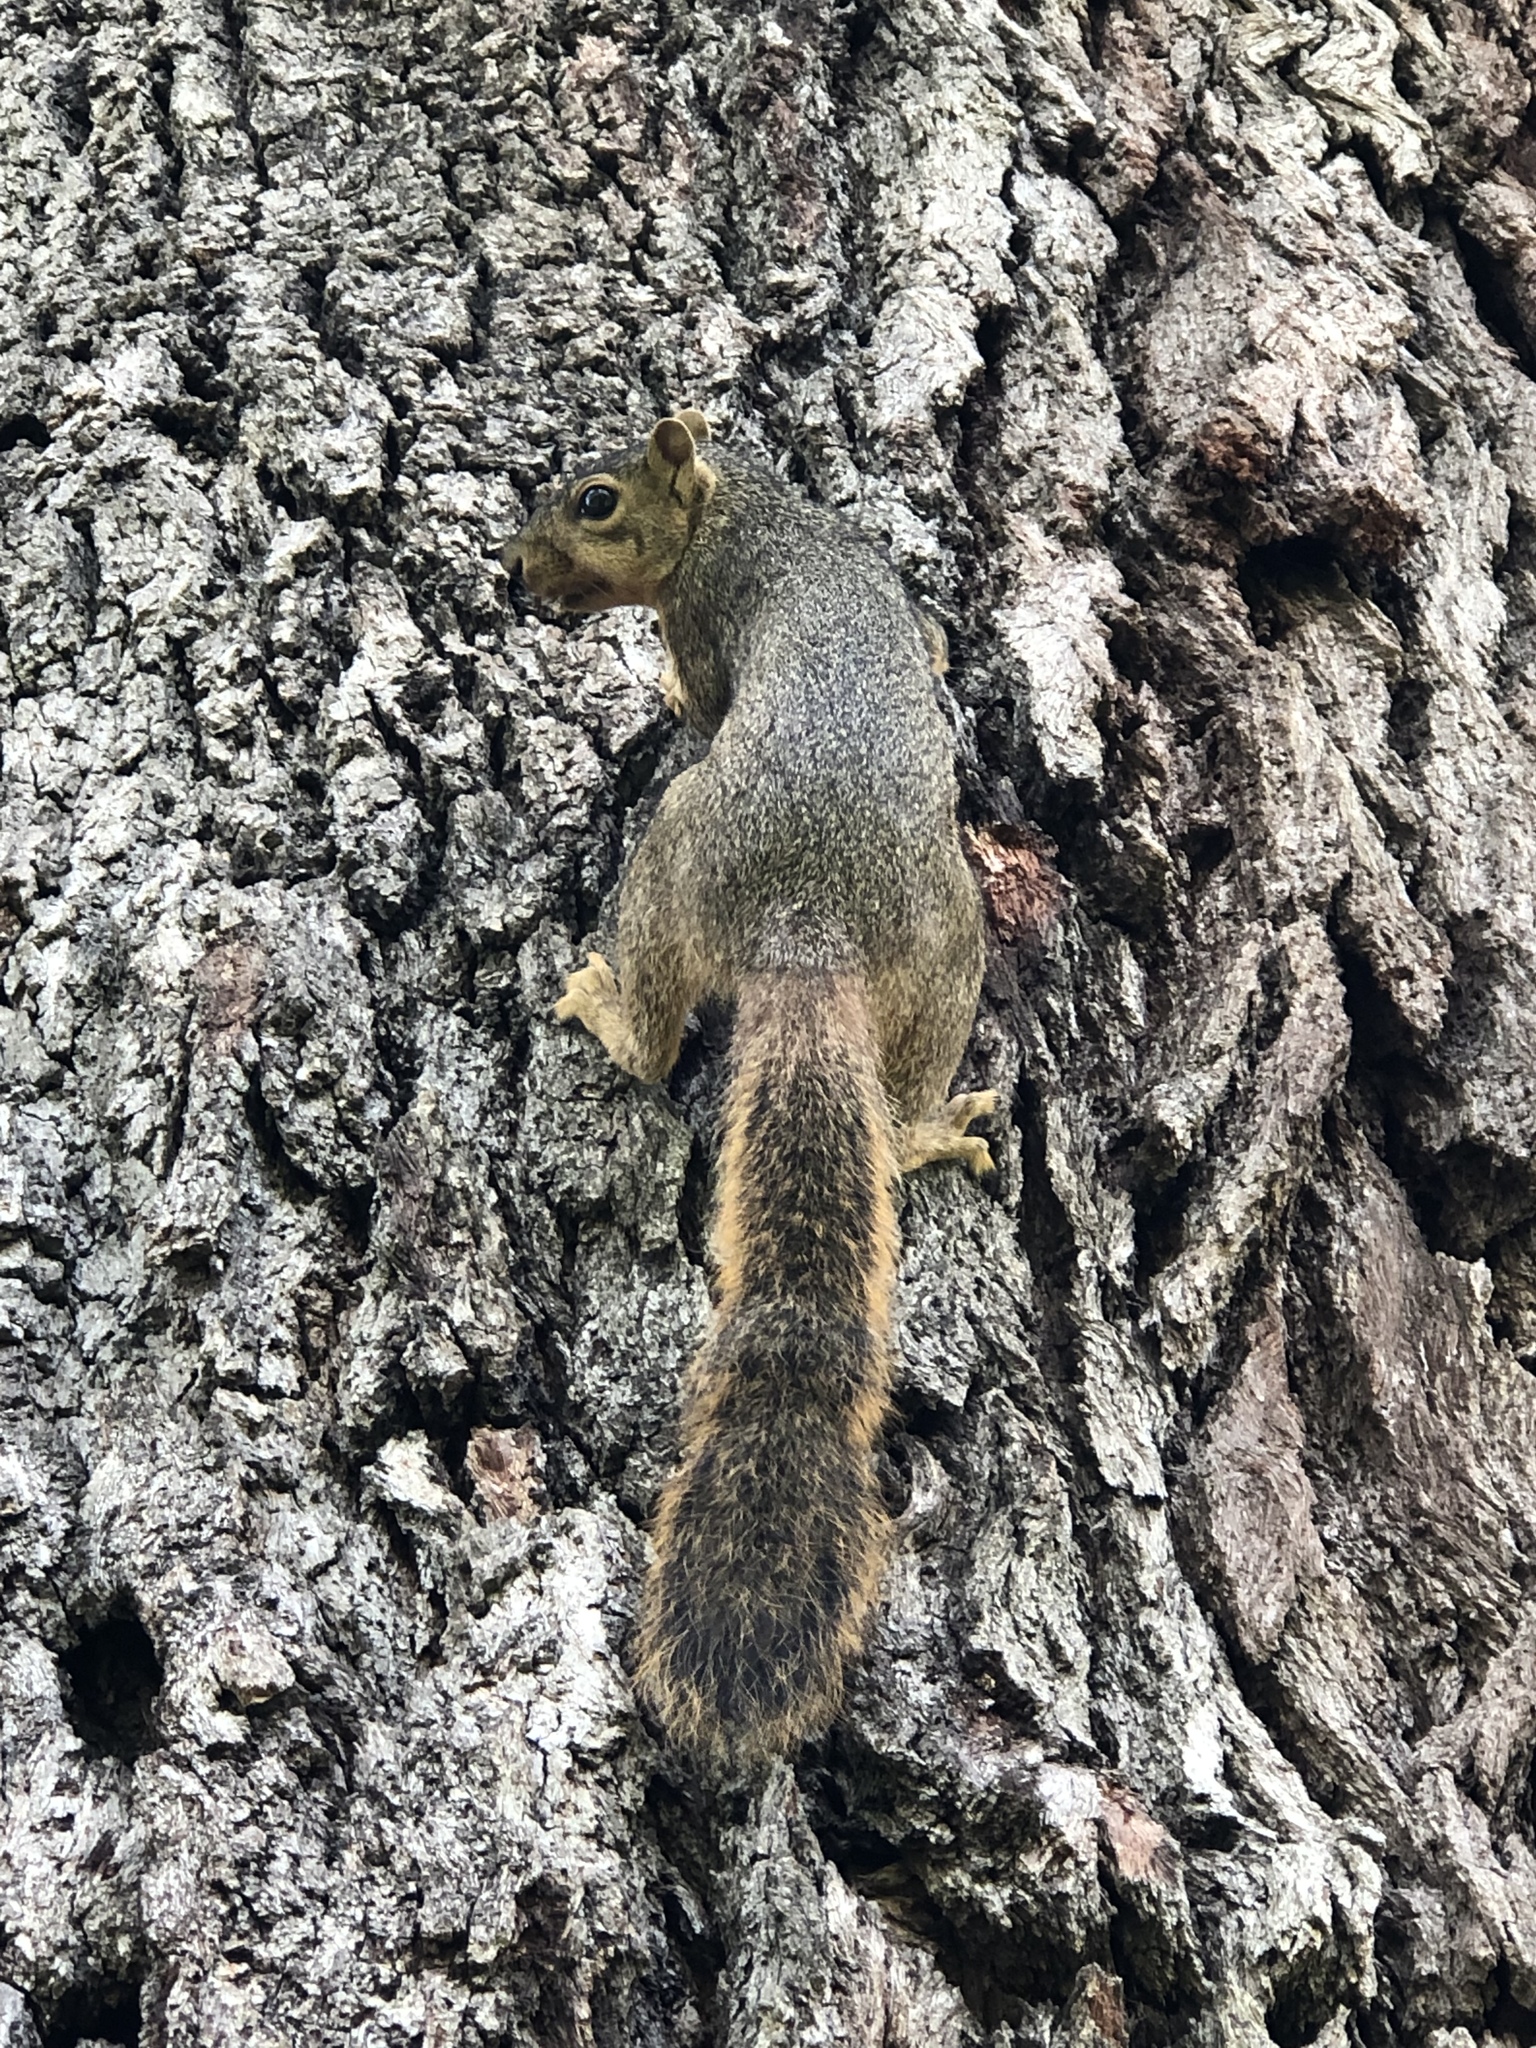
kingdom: Animalia
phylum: Chordata
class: Mammalia
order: Rodentia
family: Sciuridae
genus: Sciurus
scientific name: Sciurus niger
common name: Fox squirrel
